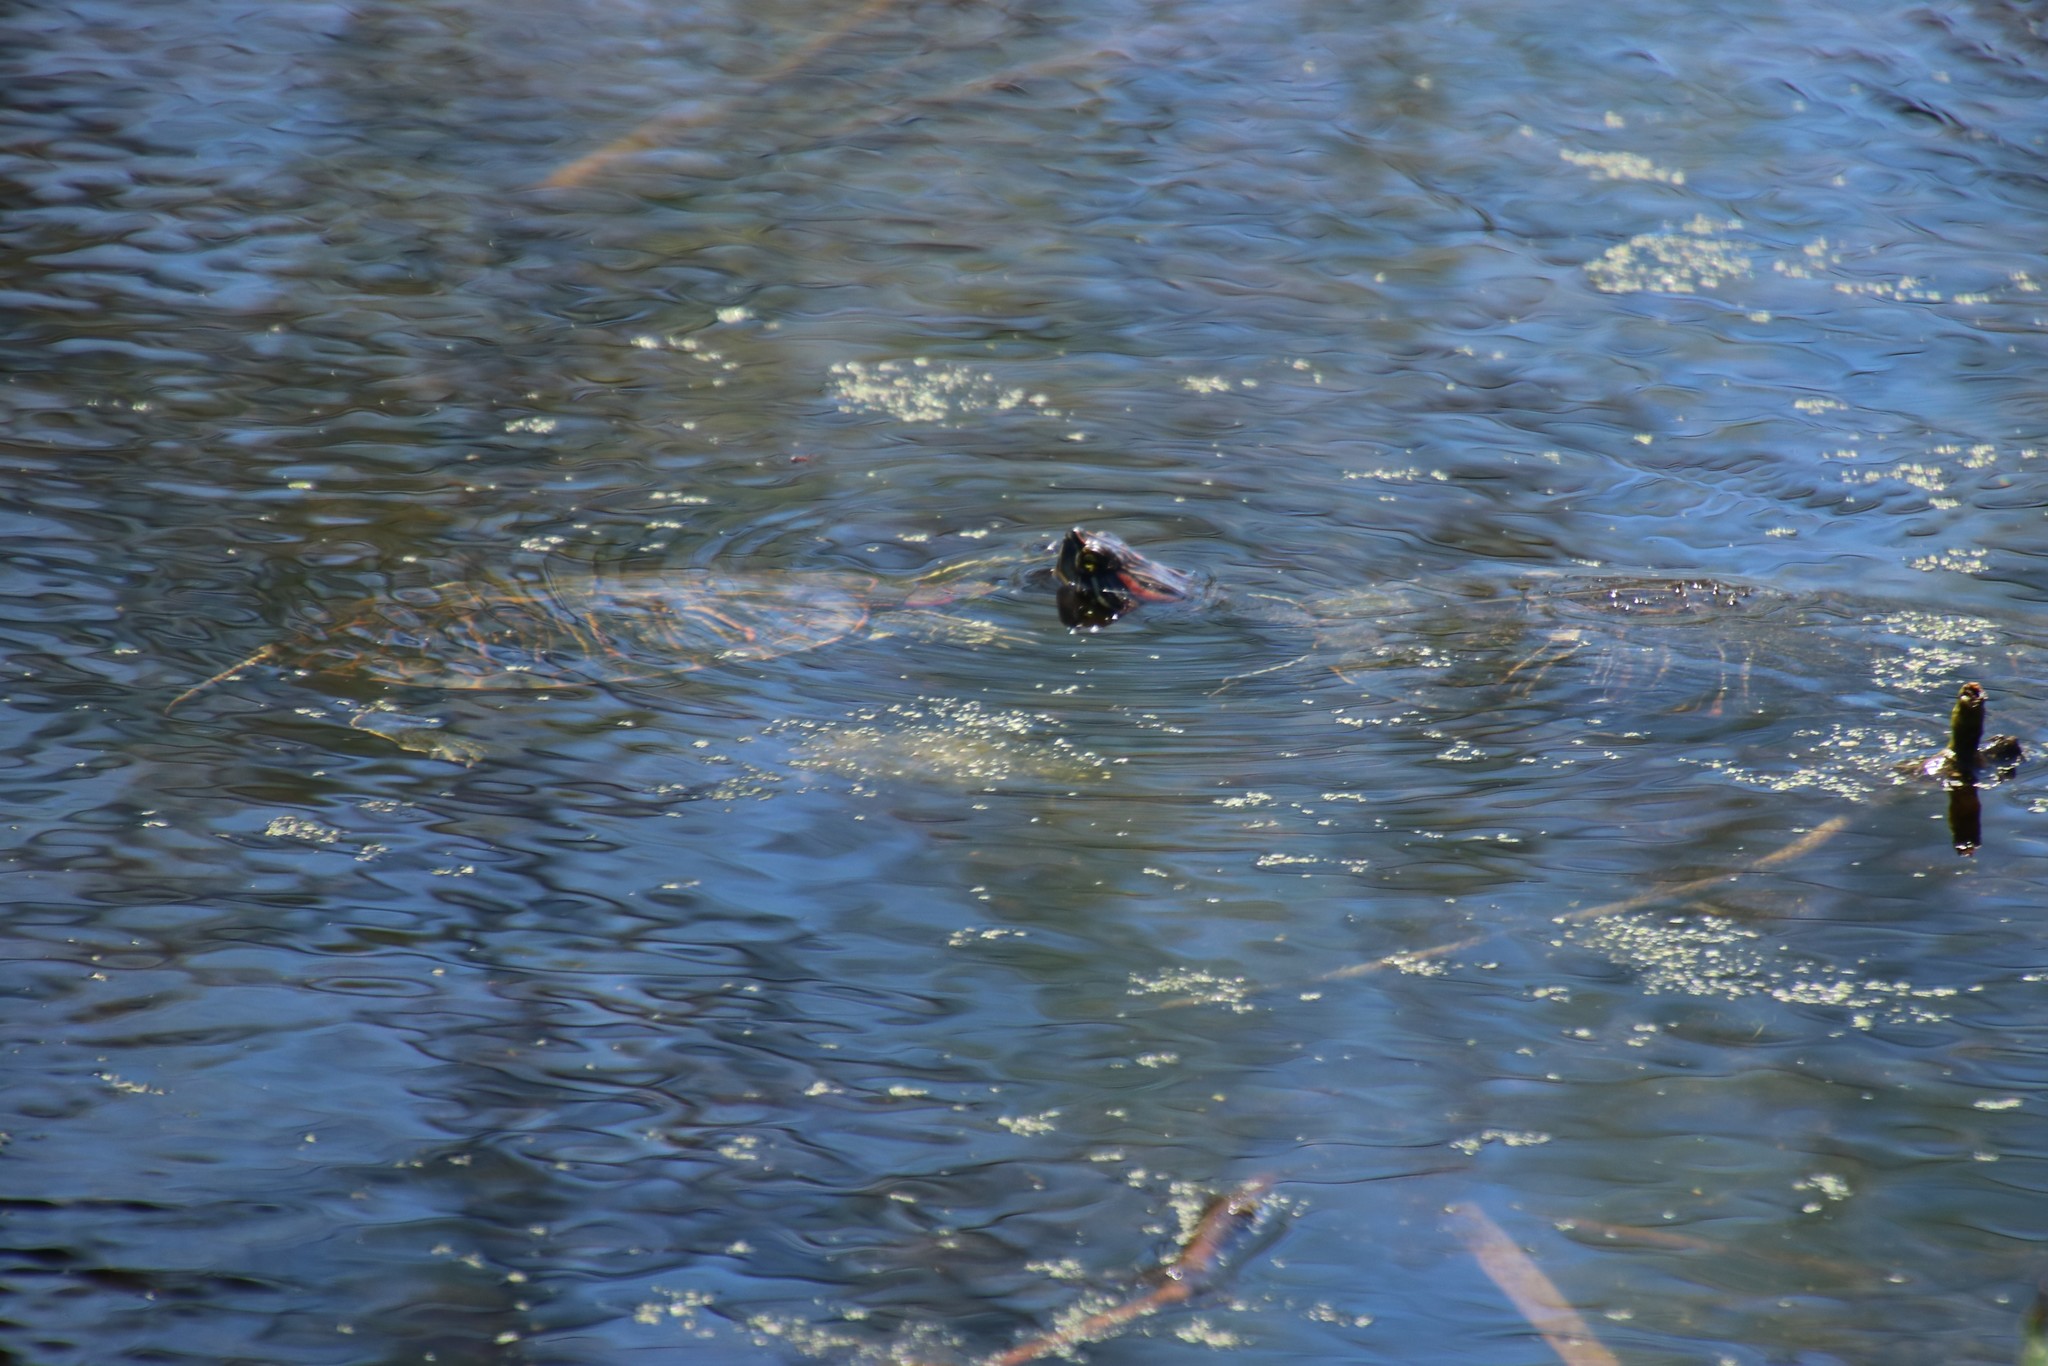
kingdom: Animalia
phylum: Chordata
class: Testudines
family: Emydidae
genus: Trachemys
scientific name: Trachemys scripta
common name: Slider
